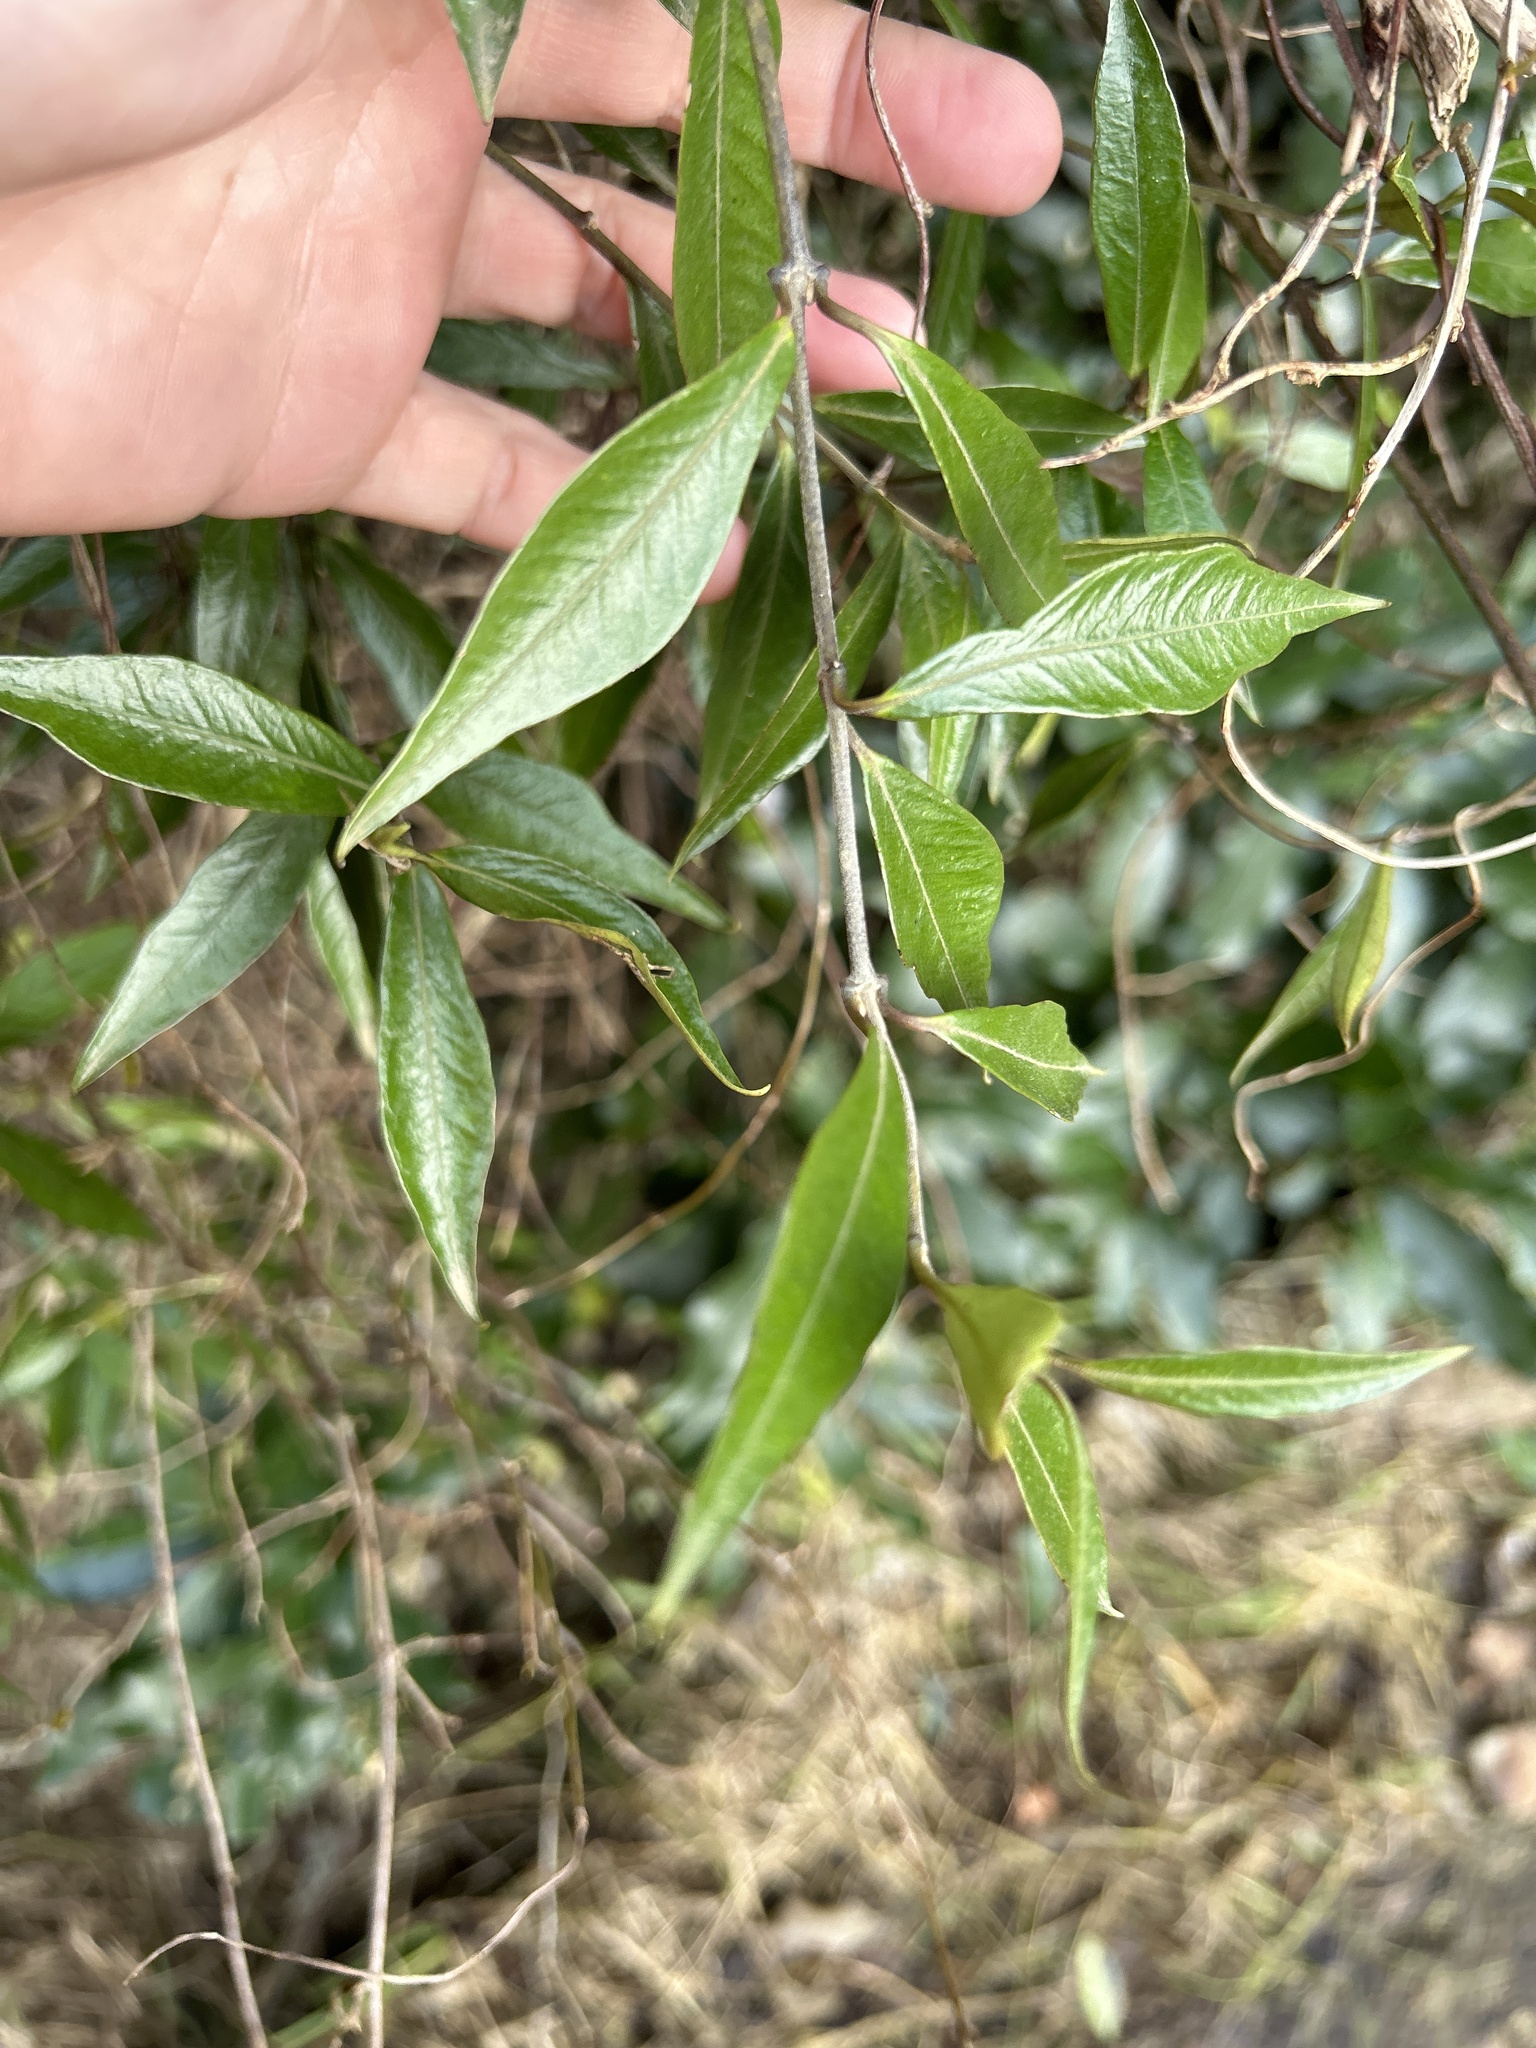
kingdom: Plantae
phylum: Tracheophyta
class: Magnoliopsida
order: Gentianales
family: Apocynaceae
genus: Parsonsia
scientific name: Parsonsia heterophylla
